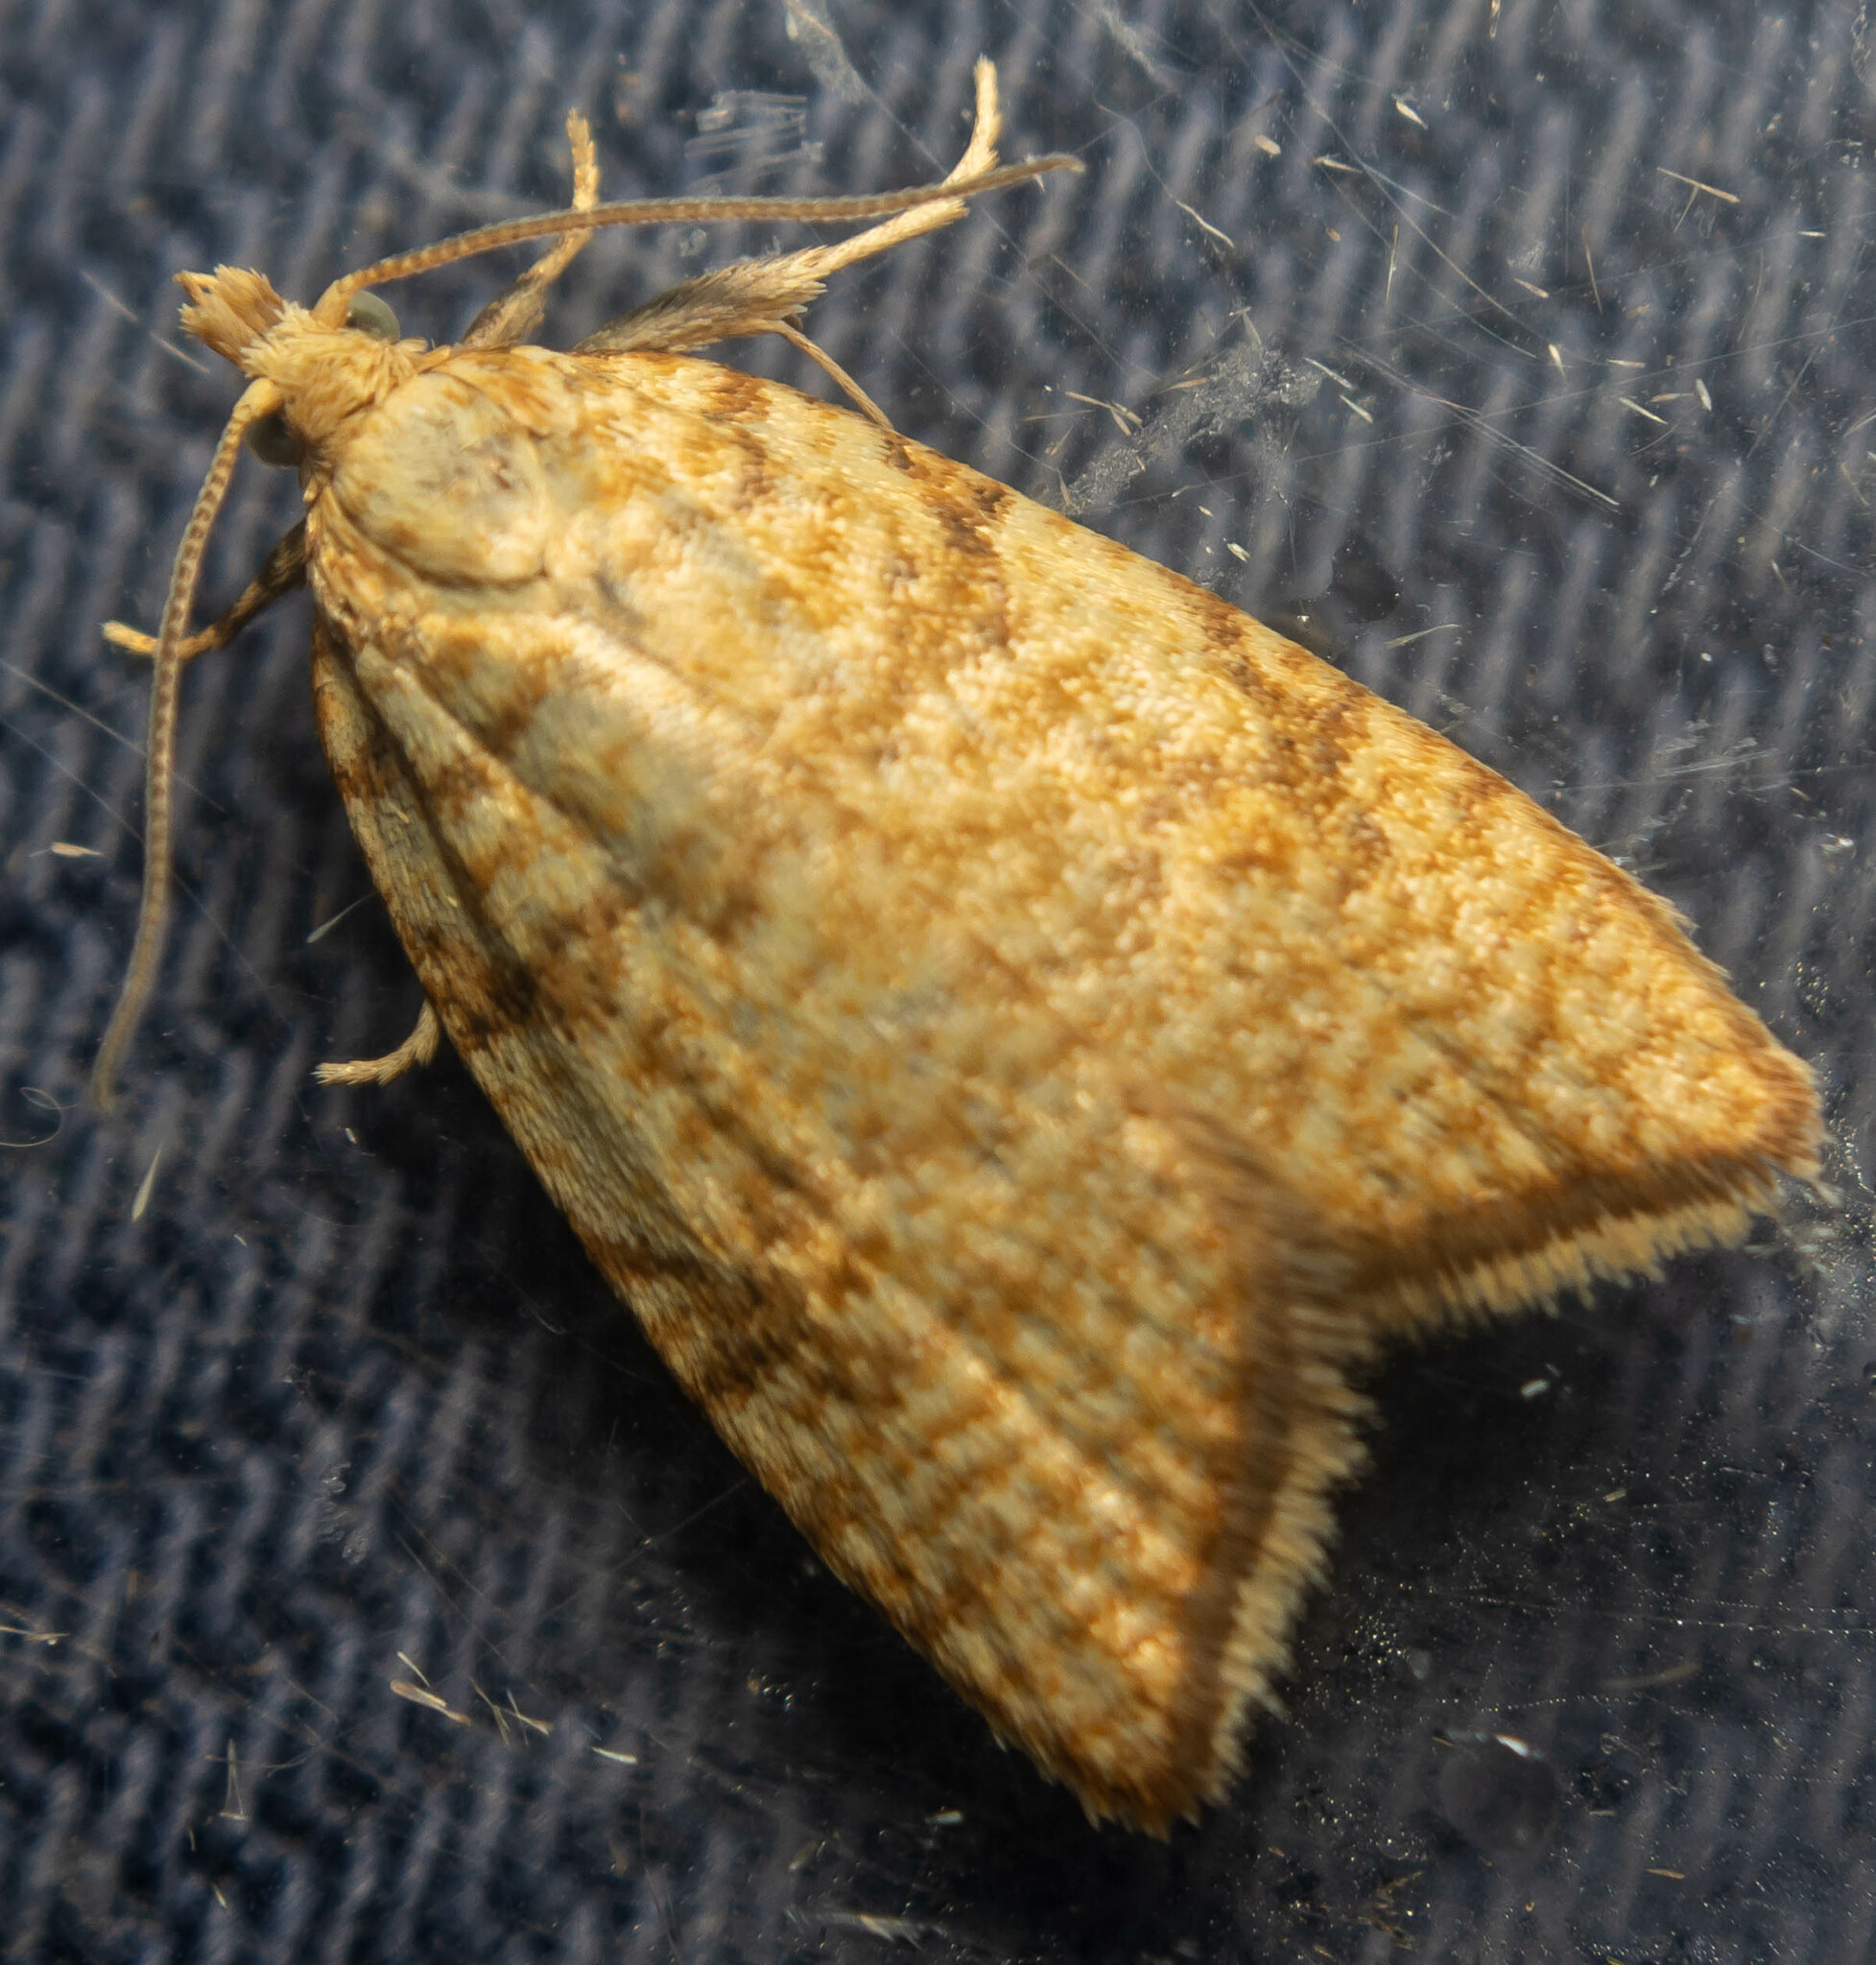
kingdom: Animalia
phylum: Arthropoda
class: Insecta
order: Lepidoptera
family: Tortricidae
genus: Aleimma
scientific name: Aleimma loeflingiana
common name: Yellow oak button
